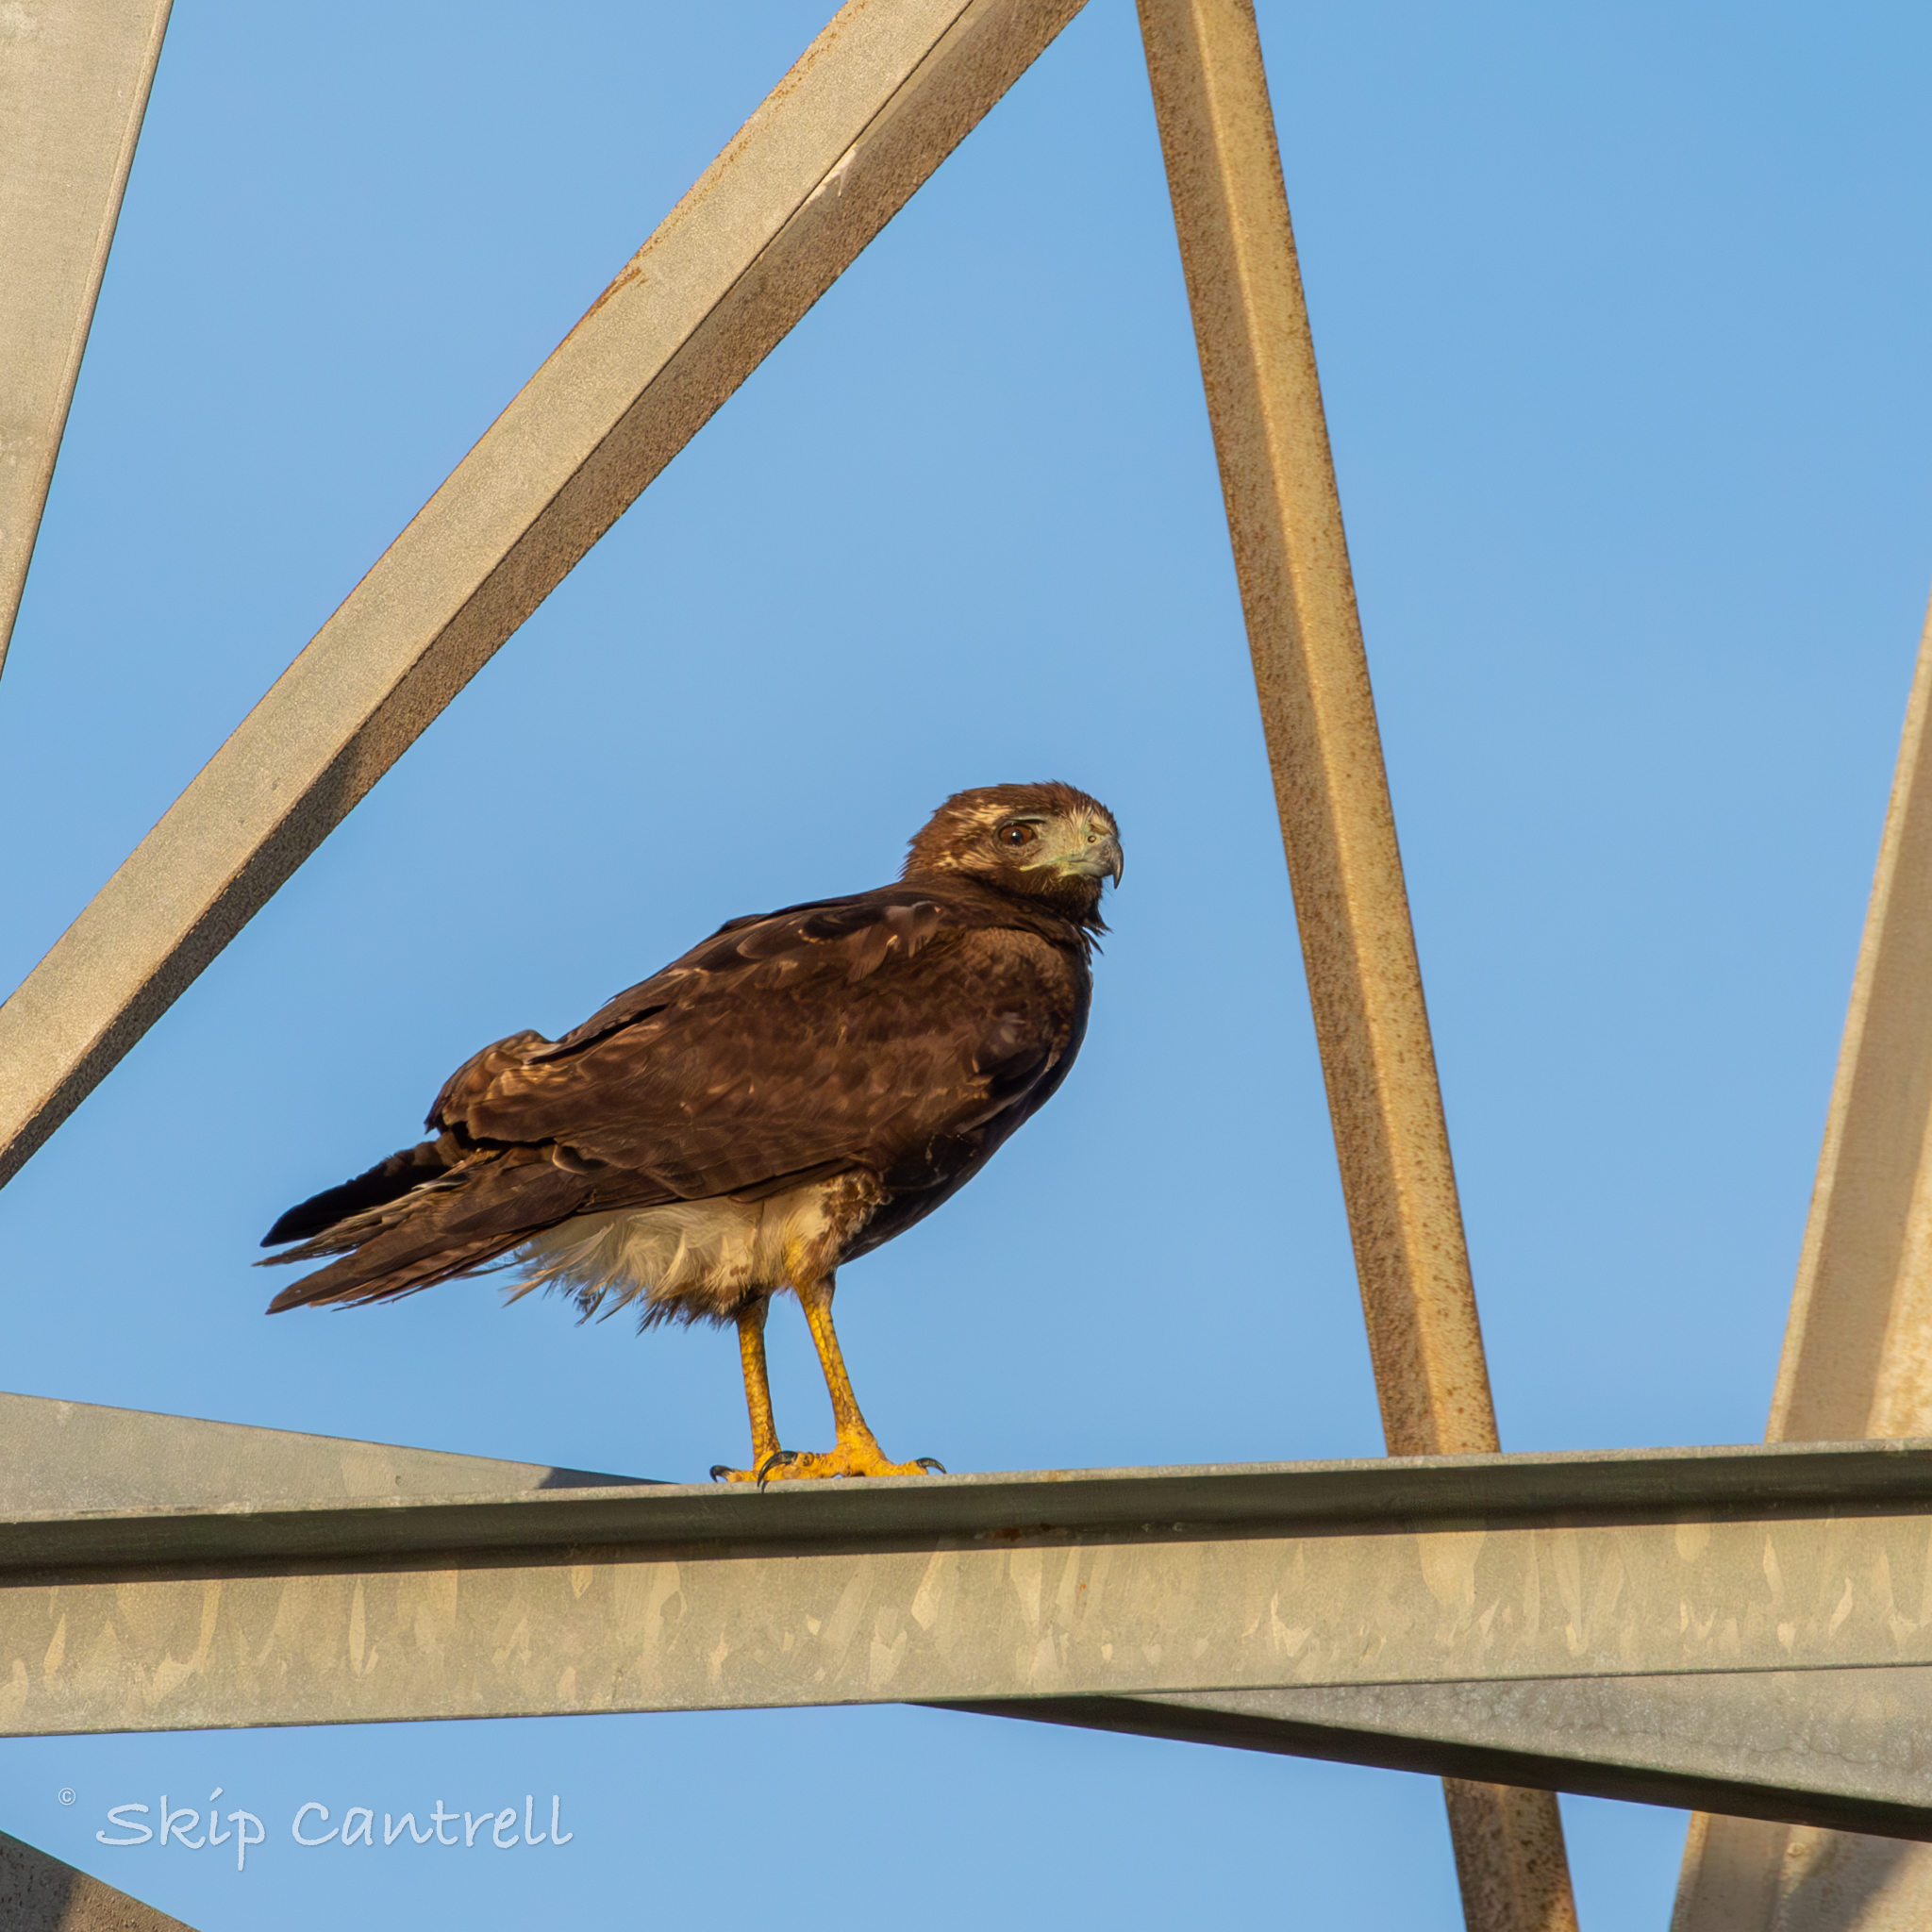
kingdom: Animalia
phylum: Chordata
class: Aves
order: Accipitriformes
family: Accipitridae
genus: Buteo
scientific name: Buteo albicaudatus
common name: White-tailed hawk
